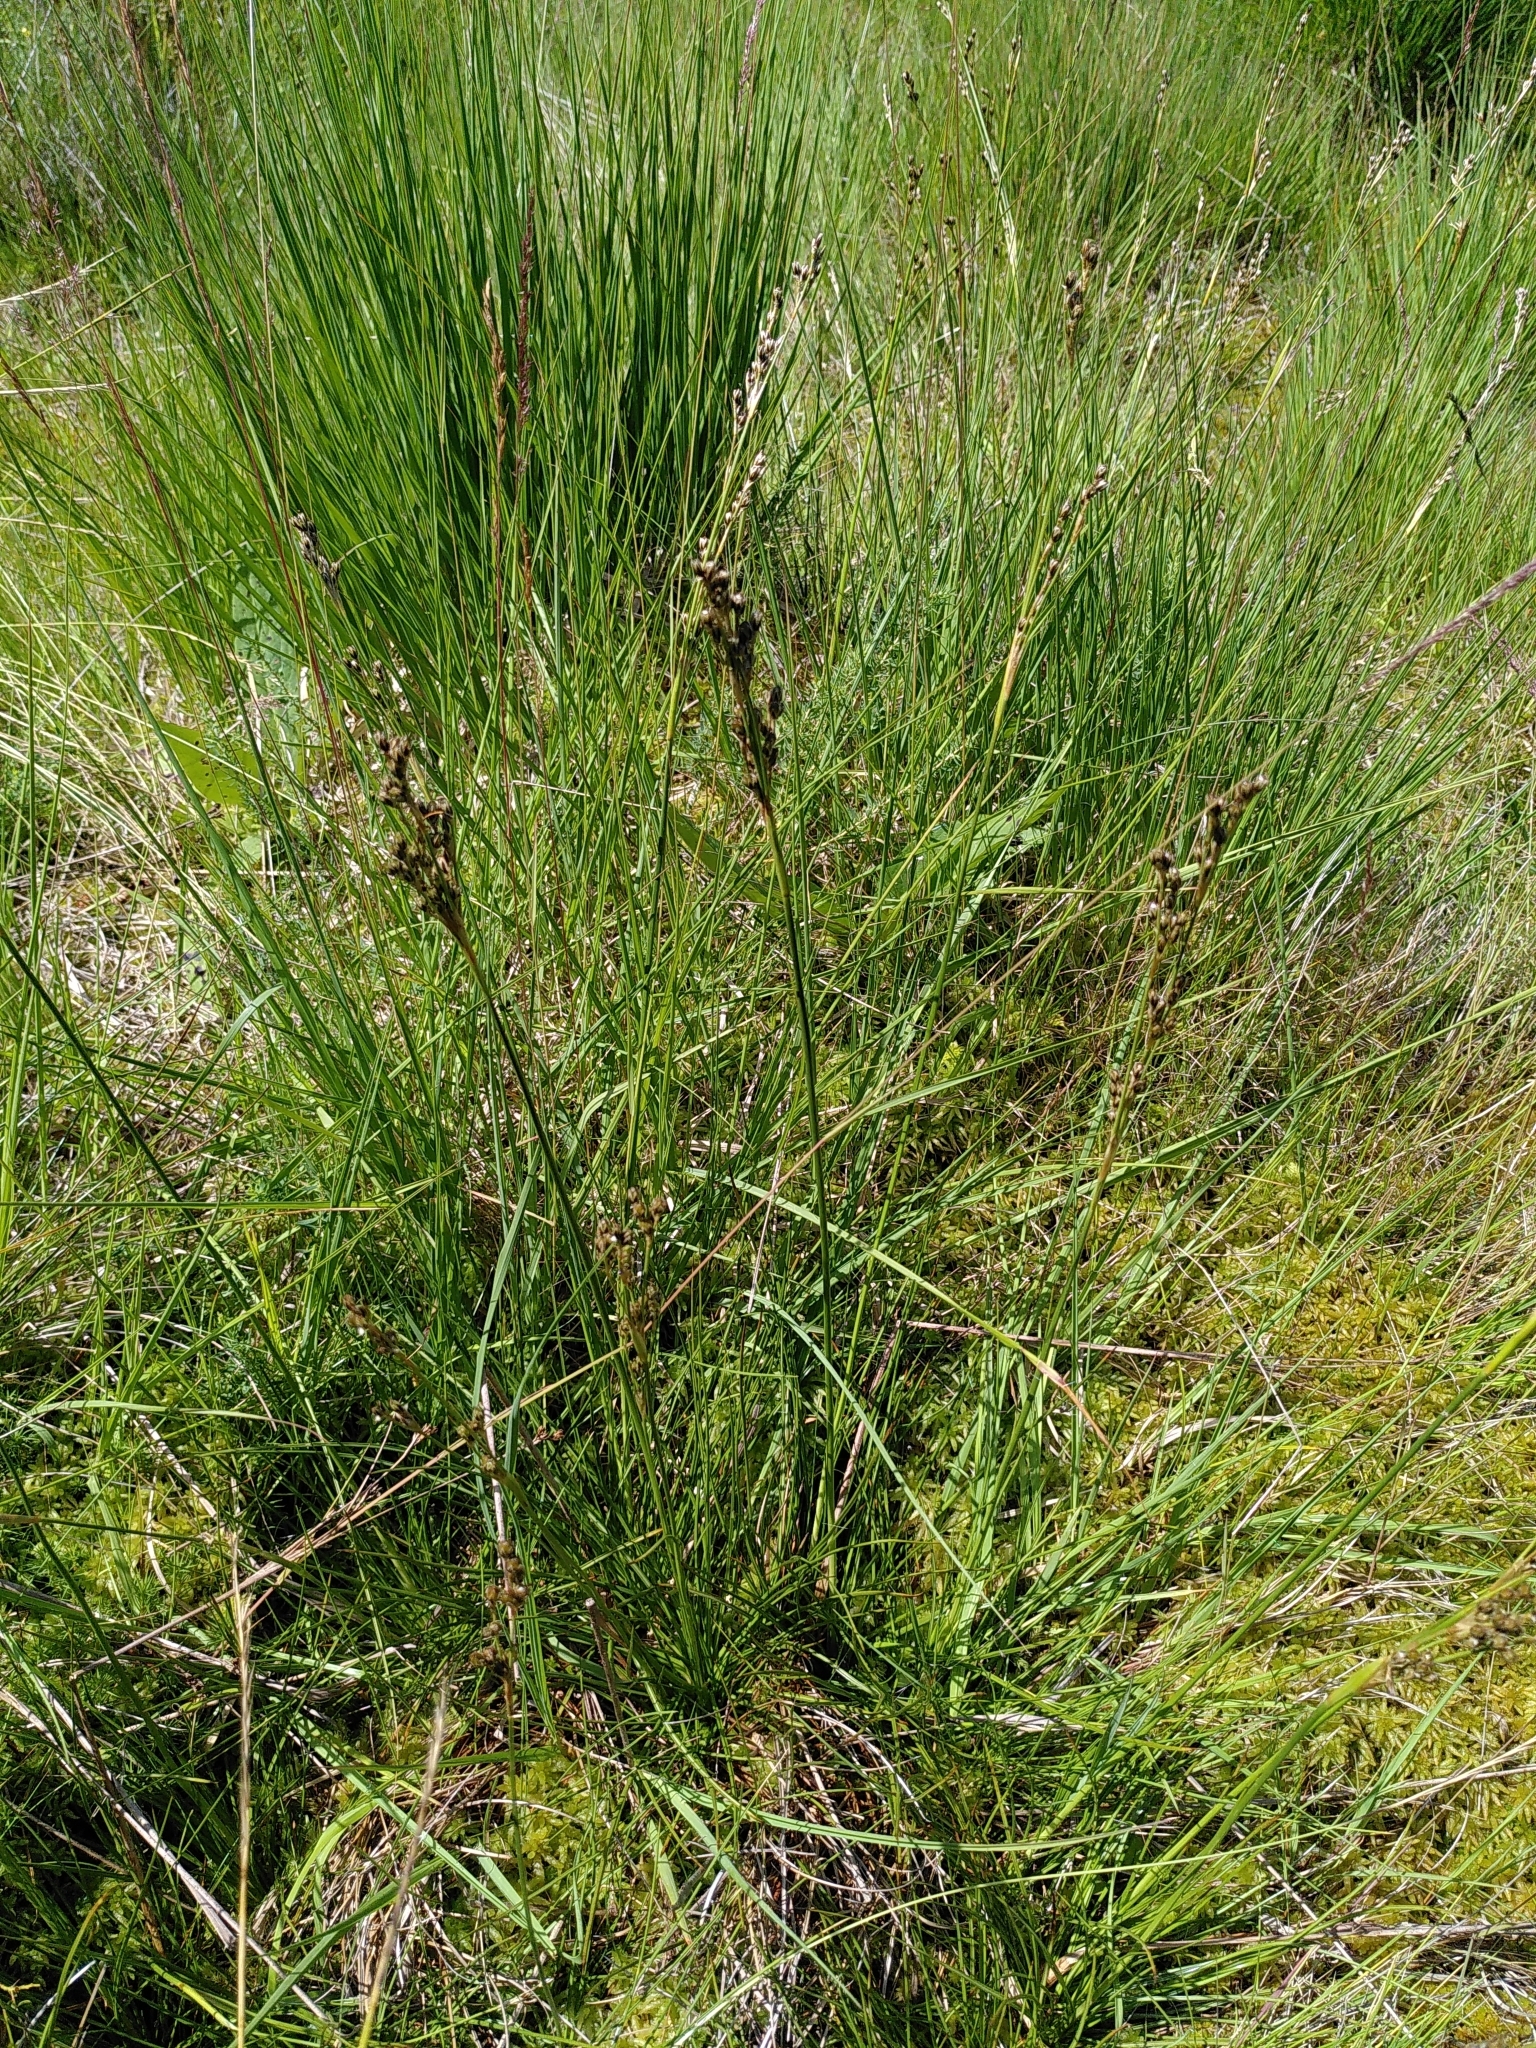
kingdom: Plantae
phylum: Tracheophyta
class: Liliopsida
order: Poales
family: Juncaceae
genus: Juncus
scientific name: Juncus squarrosus
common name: Heath rush
